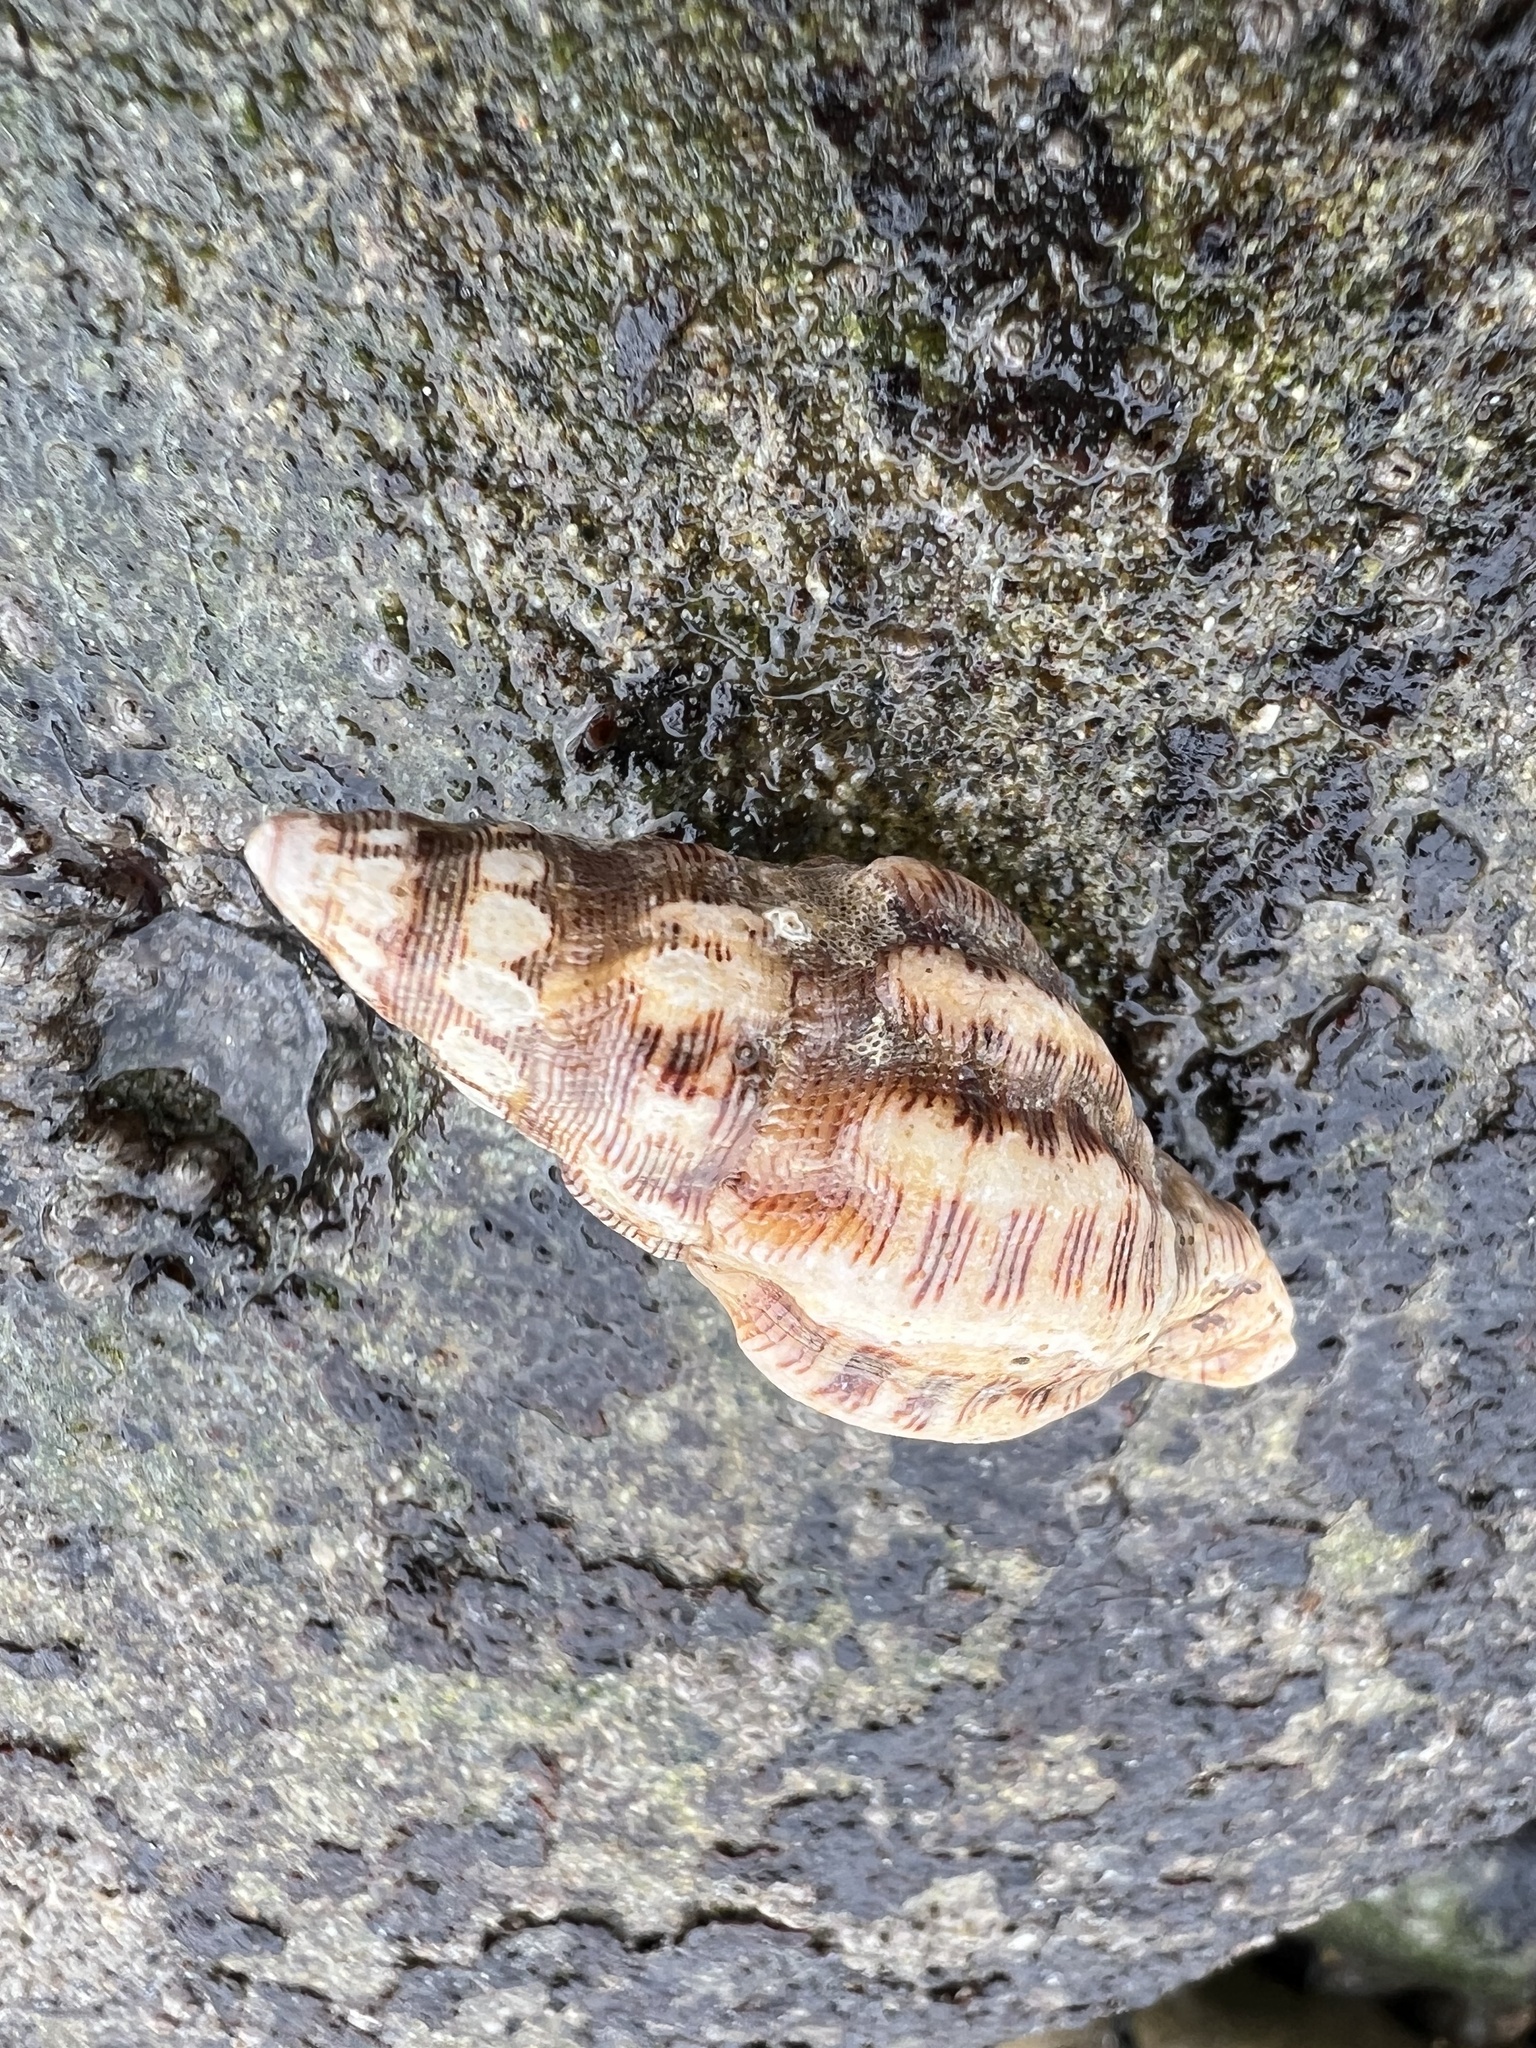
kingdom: Animalia
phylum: Mollusca
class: Gastropoda
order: Neogastropoda
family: Muricidae
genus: Roperia
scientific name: Roperia poulsoni
